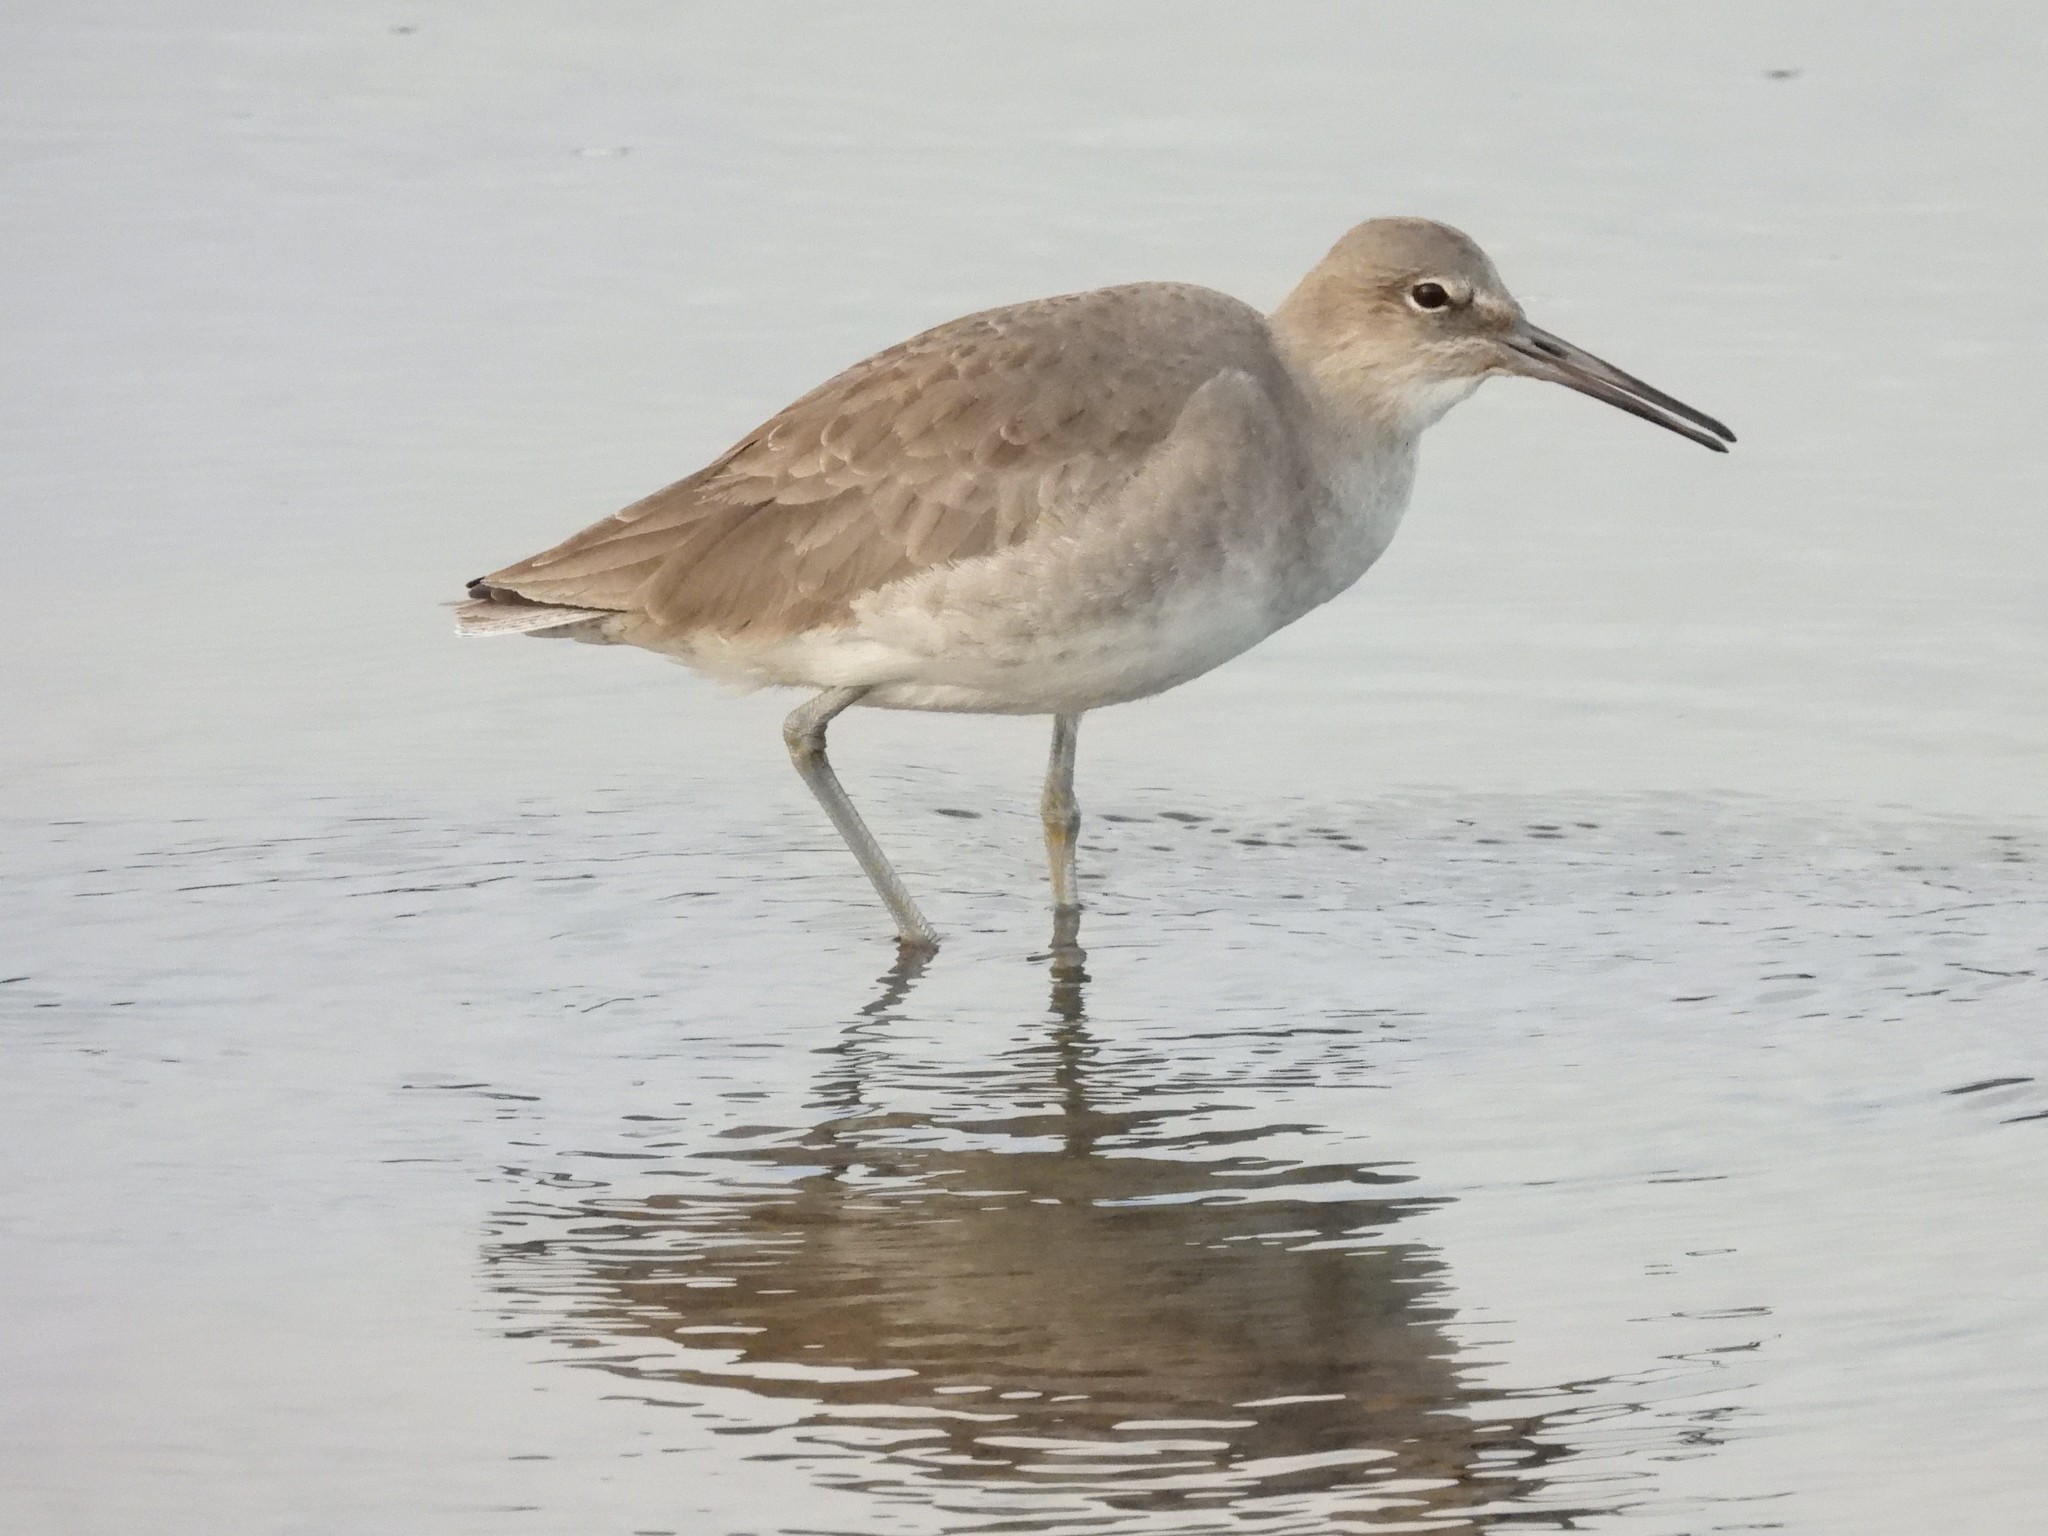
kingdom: Animalia
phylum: Chordata
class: Aves
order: Charadriiformes
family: Scolopacidae
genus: Tringa
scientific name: Tringa semipalmata
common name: Willet
